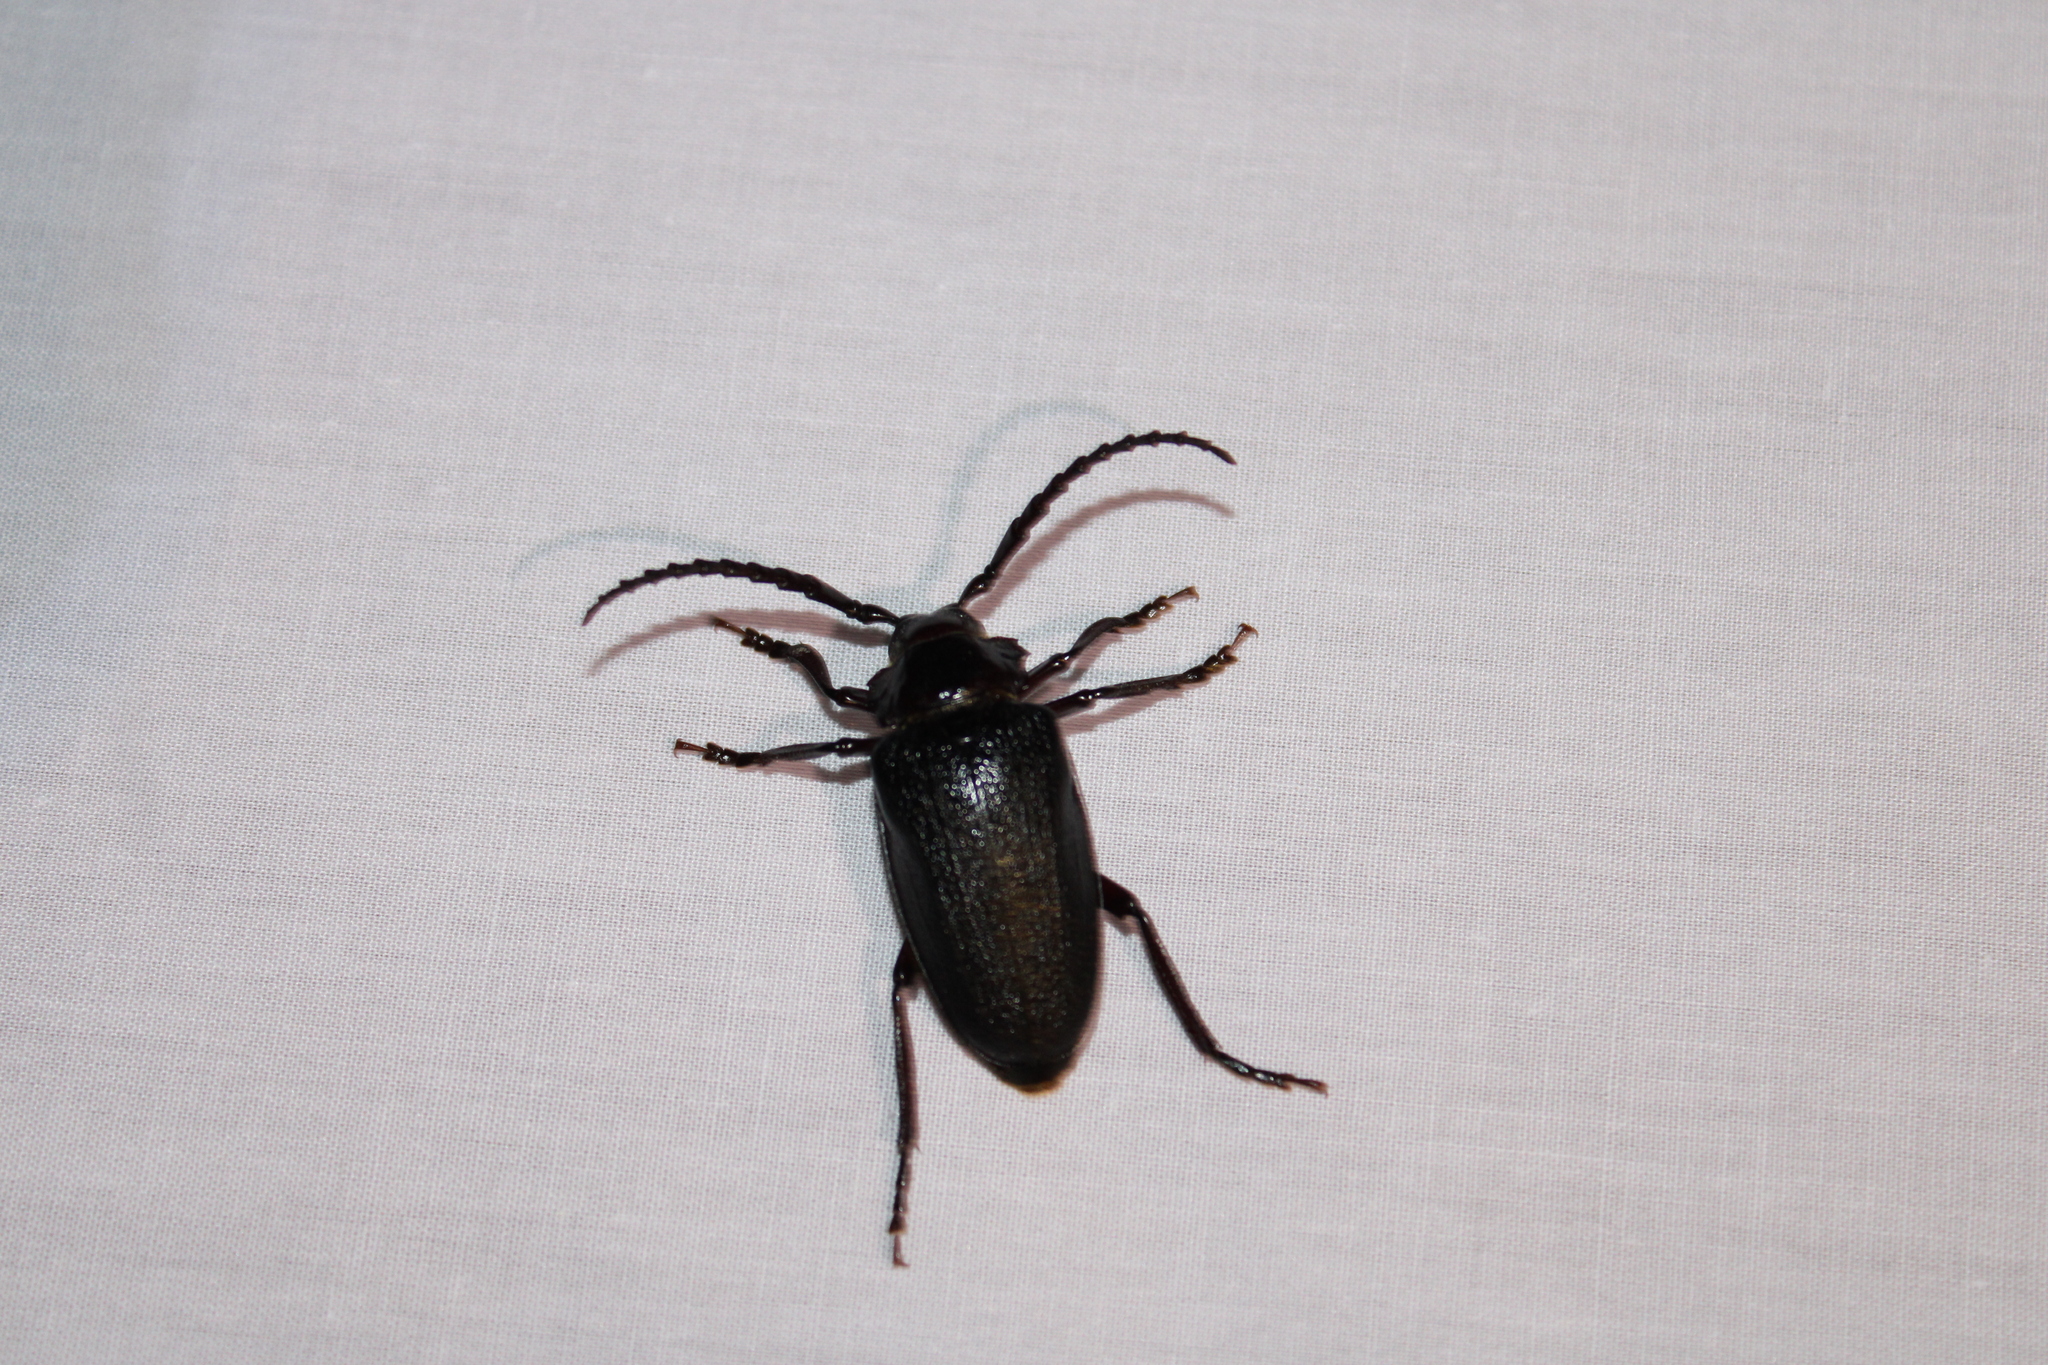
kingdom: Animalia
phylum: Arthropoda
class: Insecta
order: Coleoptera
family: Cerambycidae
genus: Prionus
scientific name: Prionus laticollis
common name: Broad necked prionus
